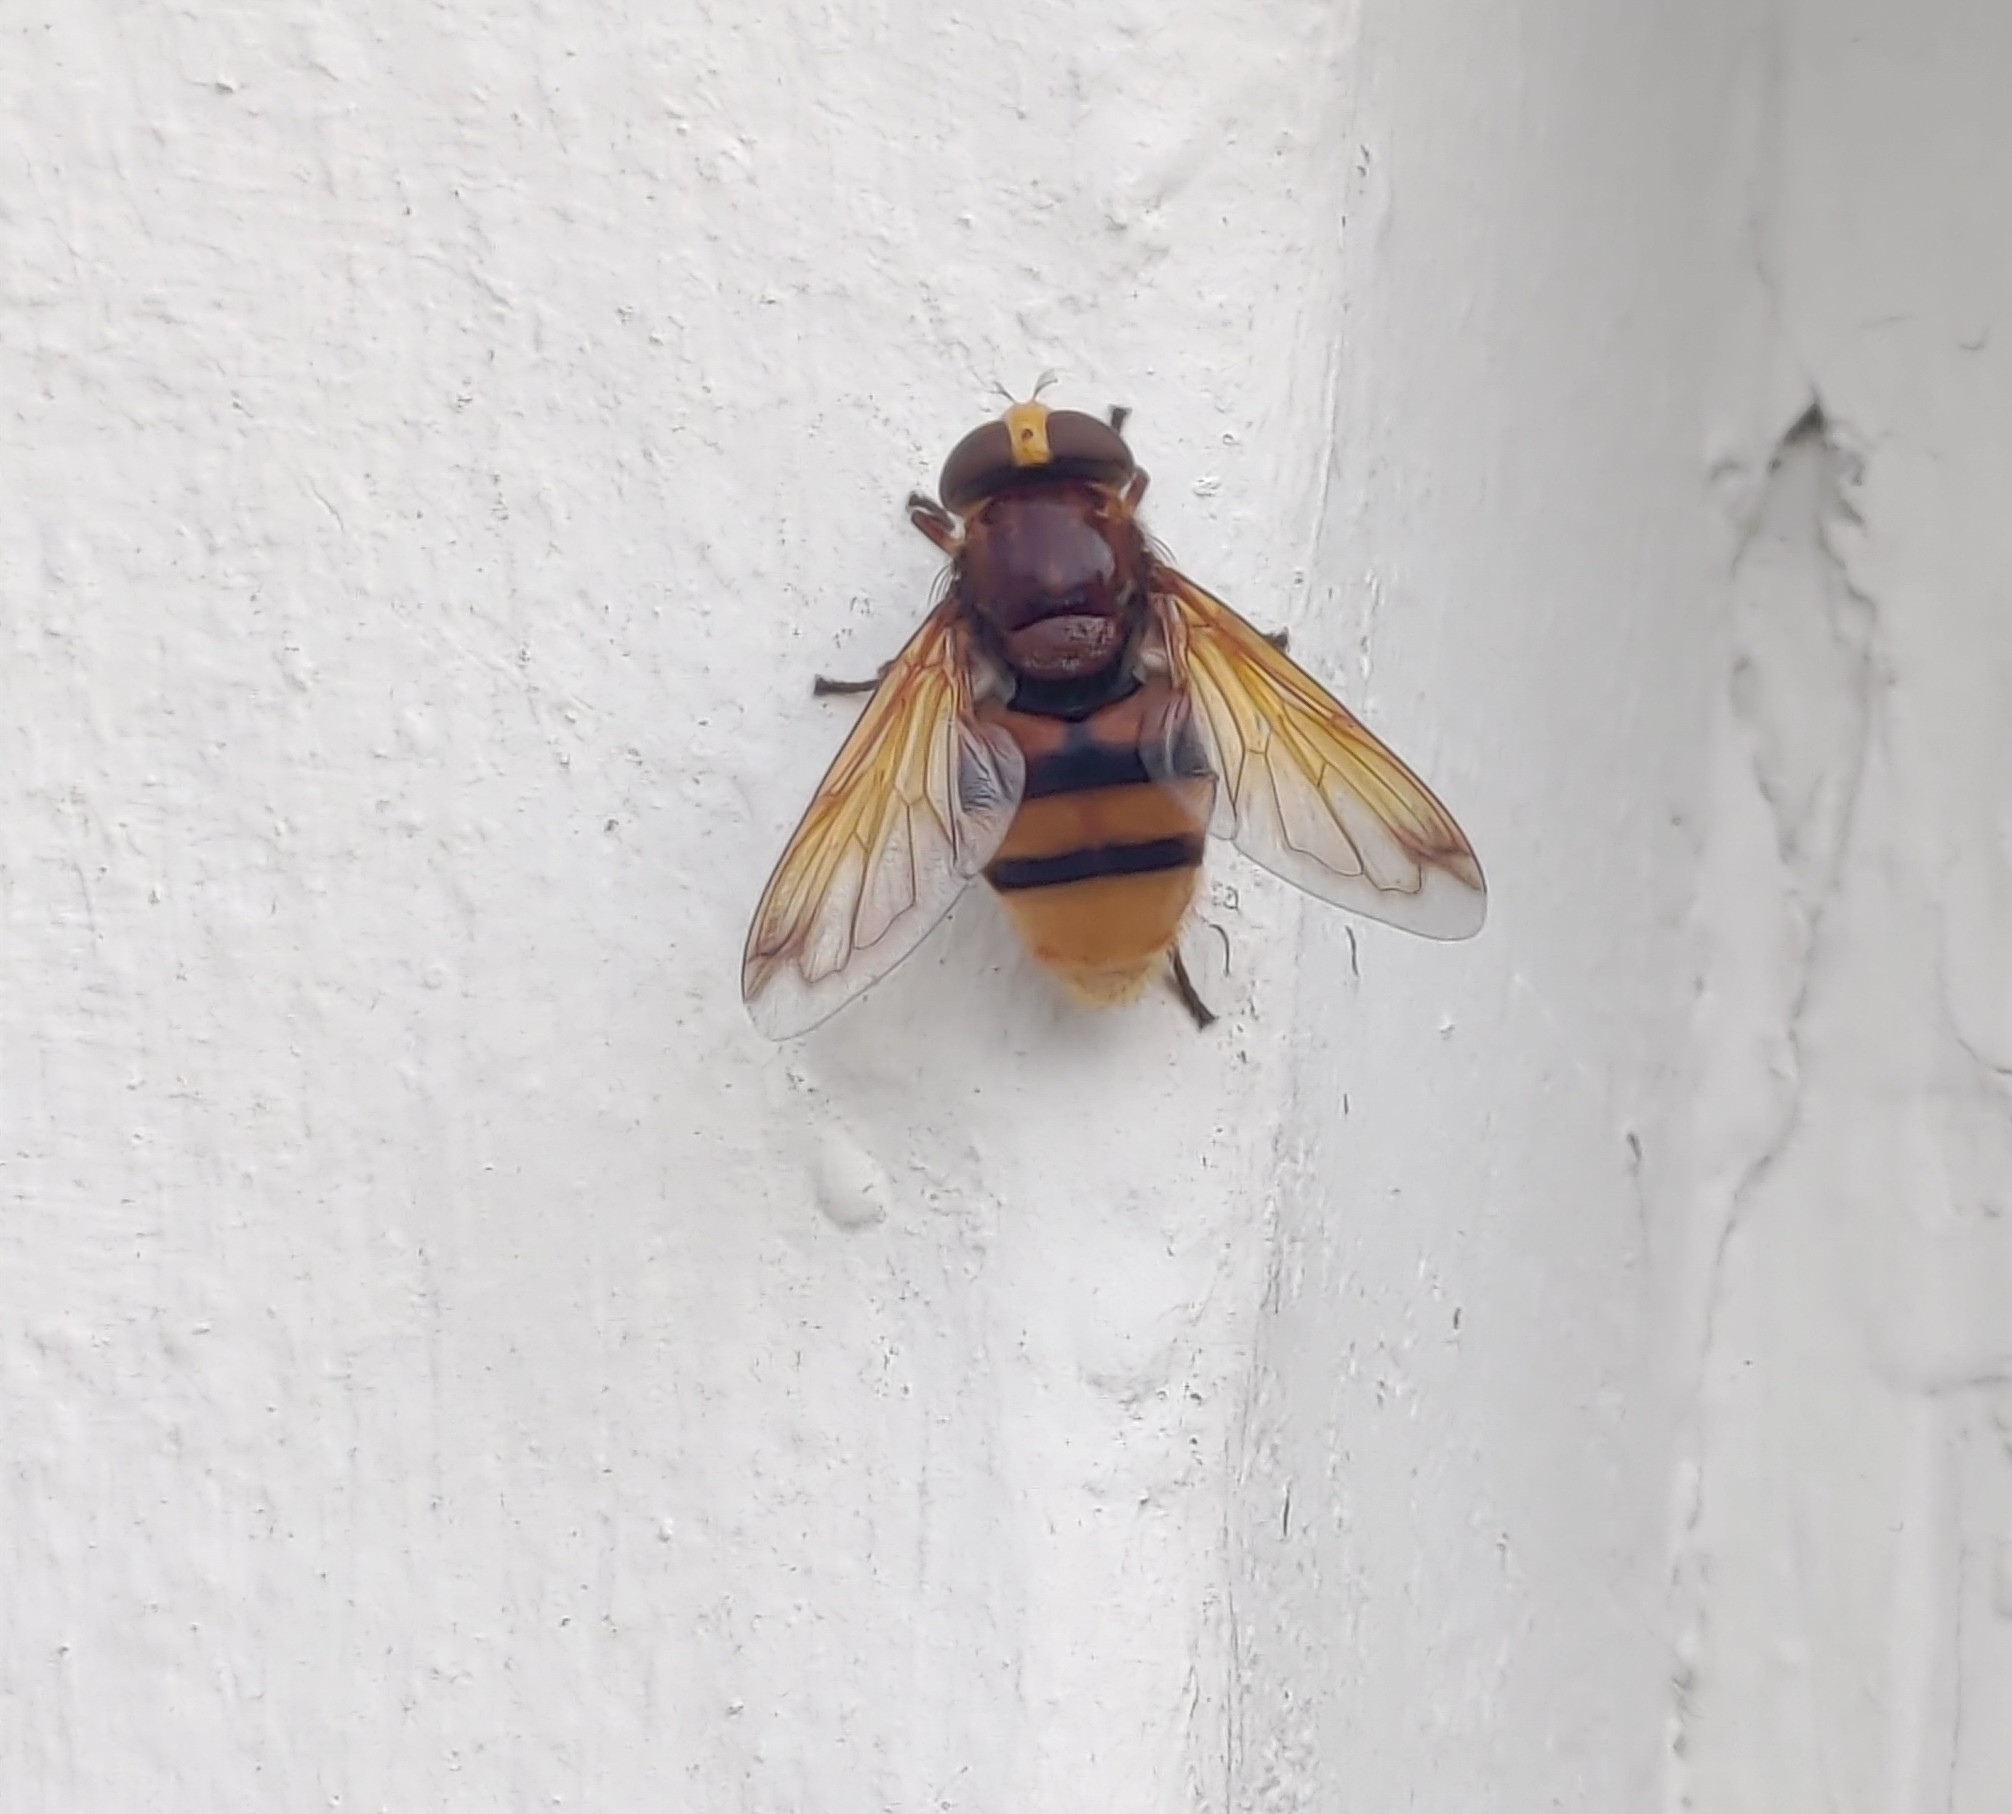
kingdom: Animalia
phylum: Arthropoda
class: Insecta
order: Diptera
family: Syrphidae
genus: Volucella
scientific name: Volucella zonaria
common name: Hornet hoverfly
